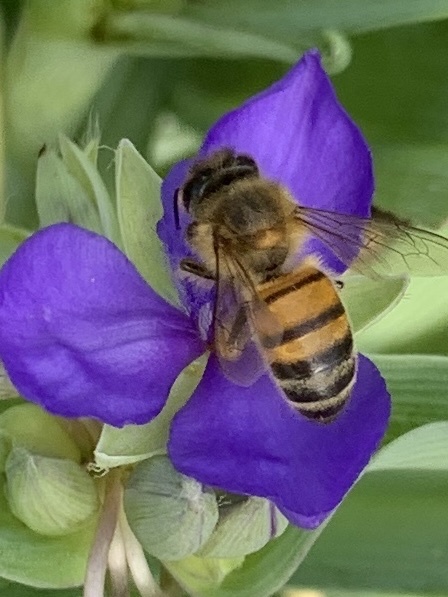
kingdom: Animalia
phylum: Arthropoda
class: Insecta
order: Hymenoptera
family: Apidae
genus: Apis
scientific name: Apis mellifera
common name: Honey bee
